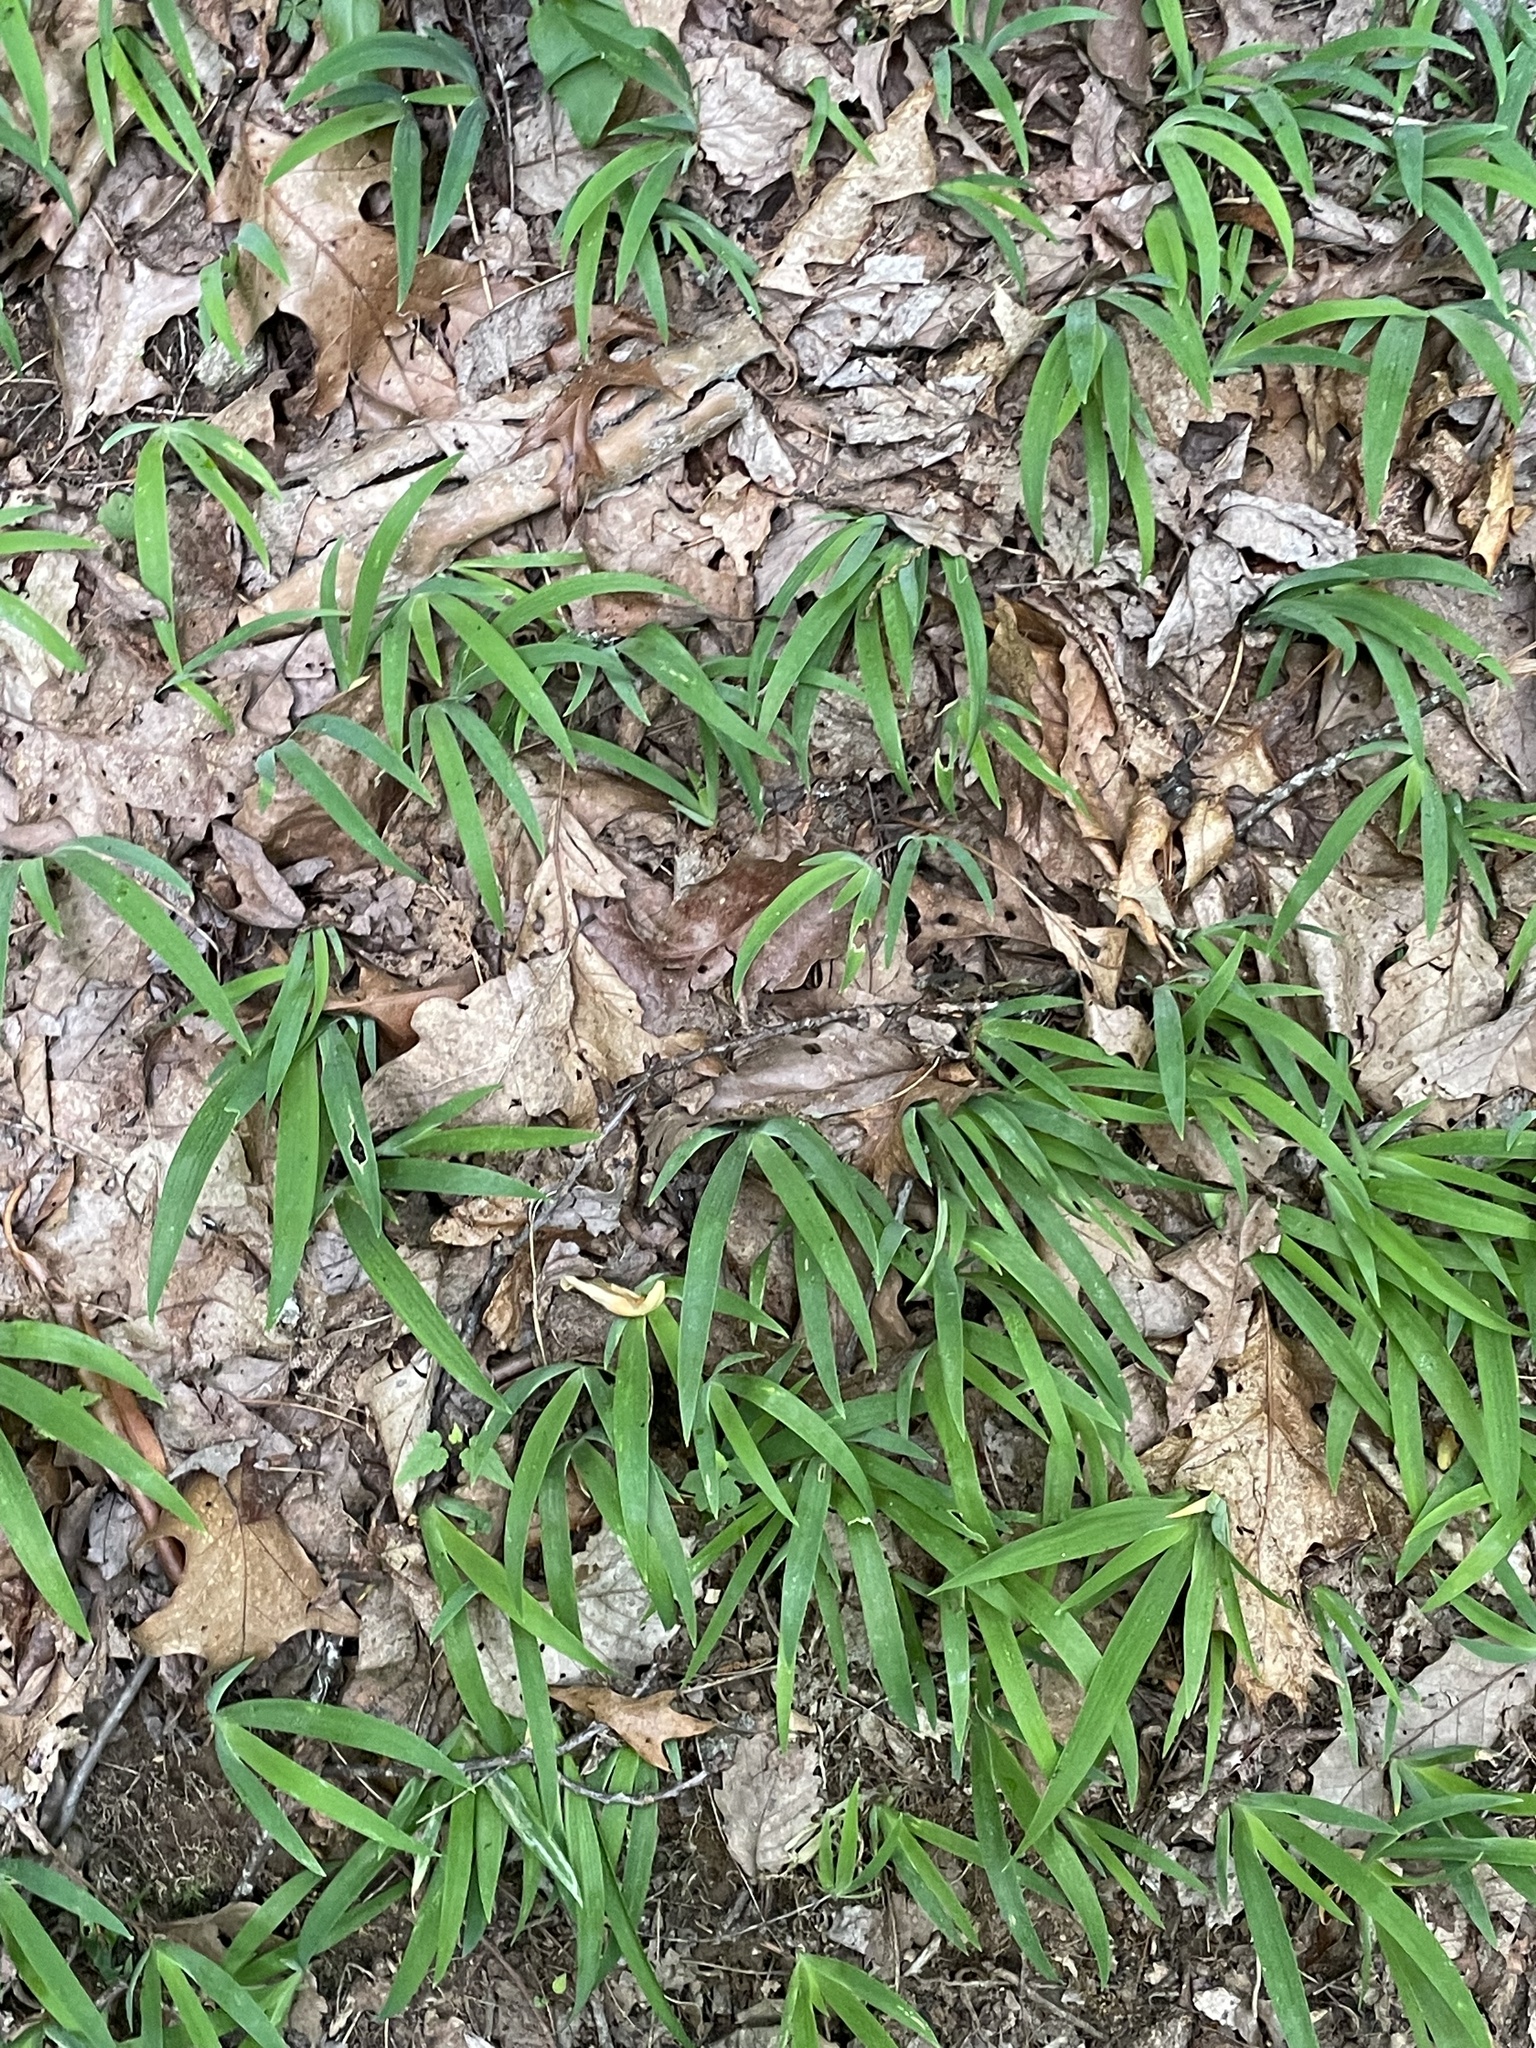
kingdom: Plantae
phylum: Tracheophyta
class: Liliopsida
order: Asparagales
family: Iridaceae
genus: Iris
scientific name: Iris cristata
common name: Crested iris
